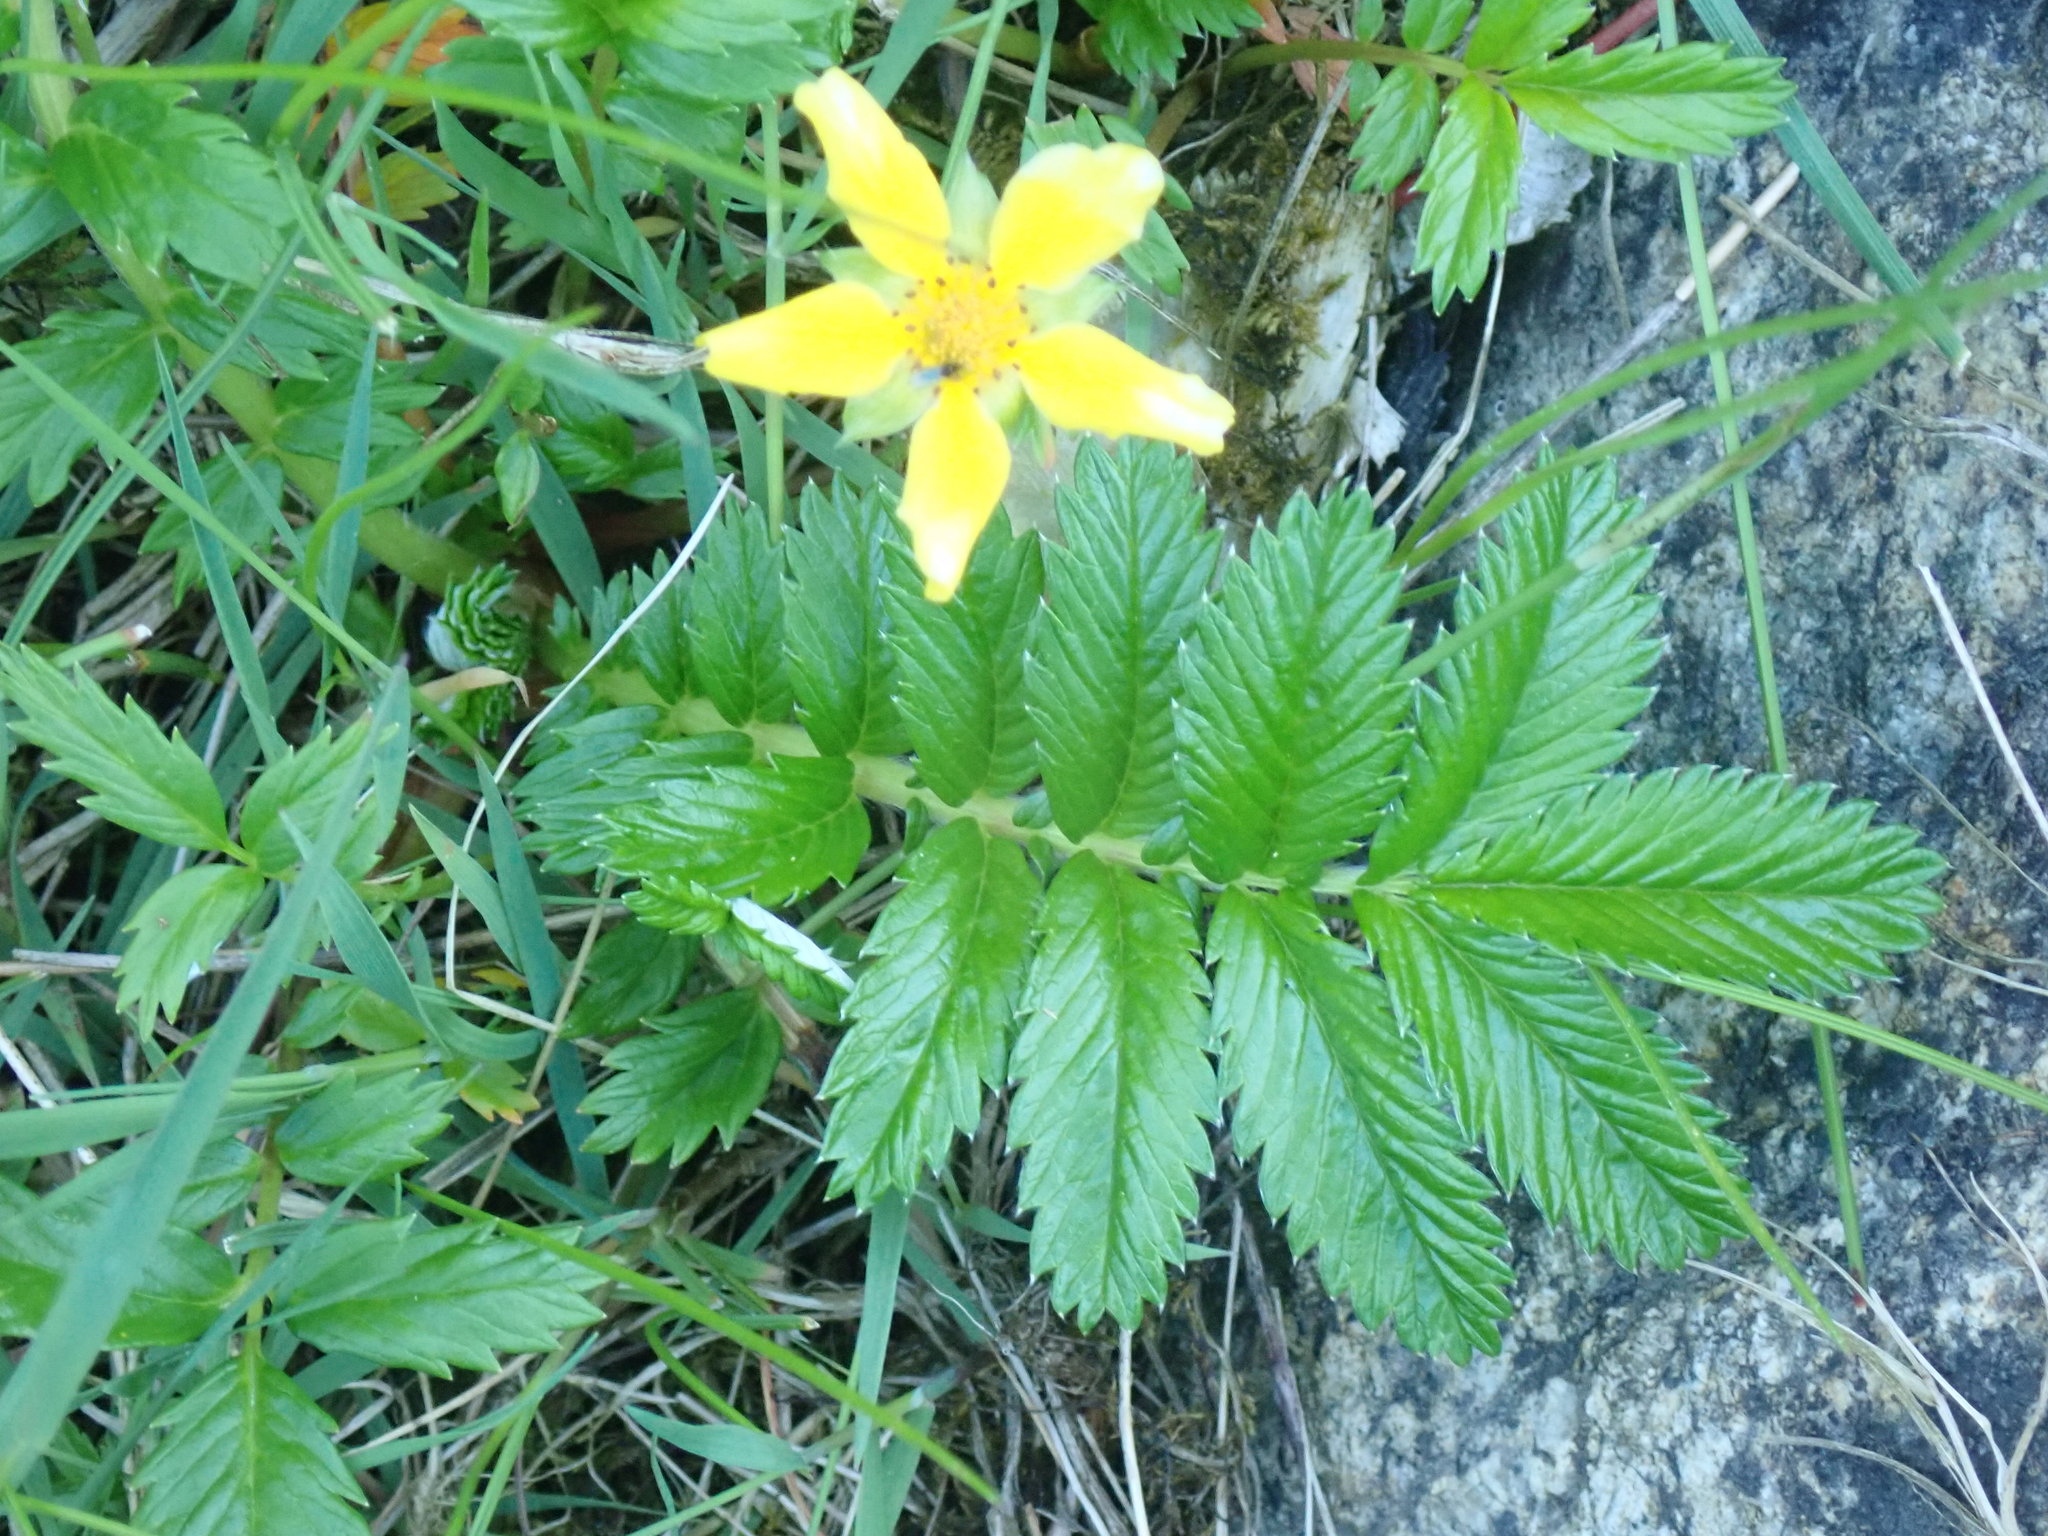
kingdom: Plantae
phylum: Tracheophyta
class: Magnoliopsida
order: Rosales
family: Rosaceae
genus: Argentina
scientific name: Argentina anserina
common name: Common silverweed
